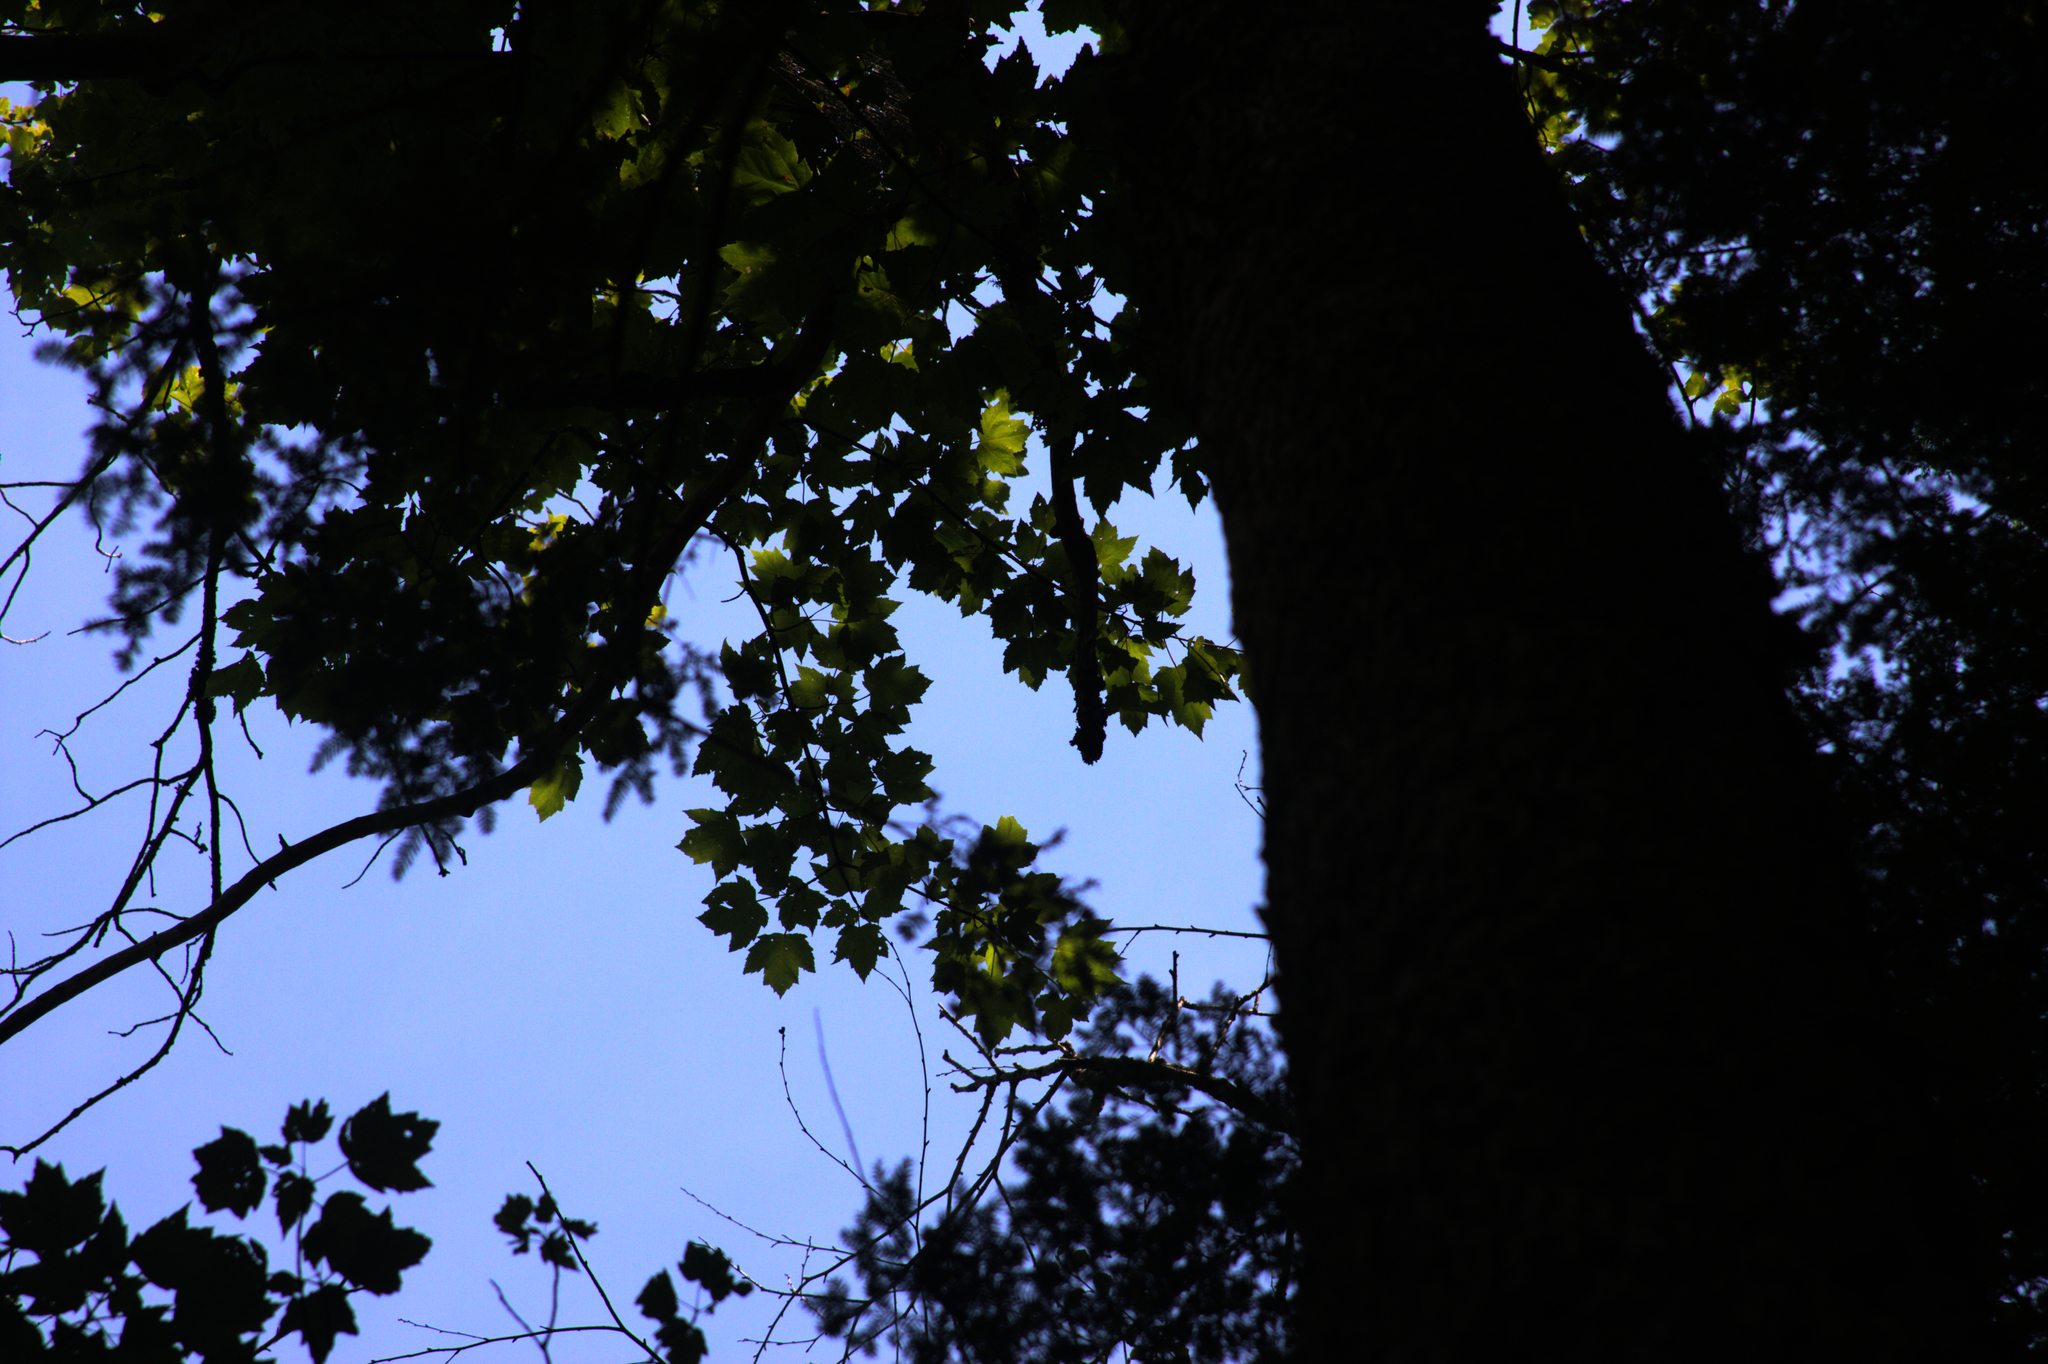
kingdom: Plantae
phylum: Tracheophyta
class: Magnoliopsida
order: Sapindales
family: Sapindaceae
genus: Acer
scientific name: Acer rubrum
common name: Red maple
